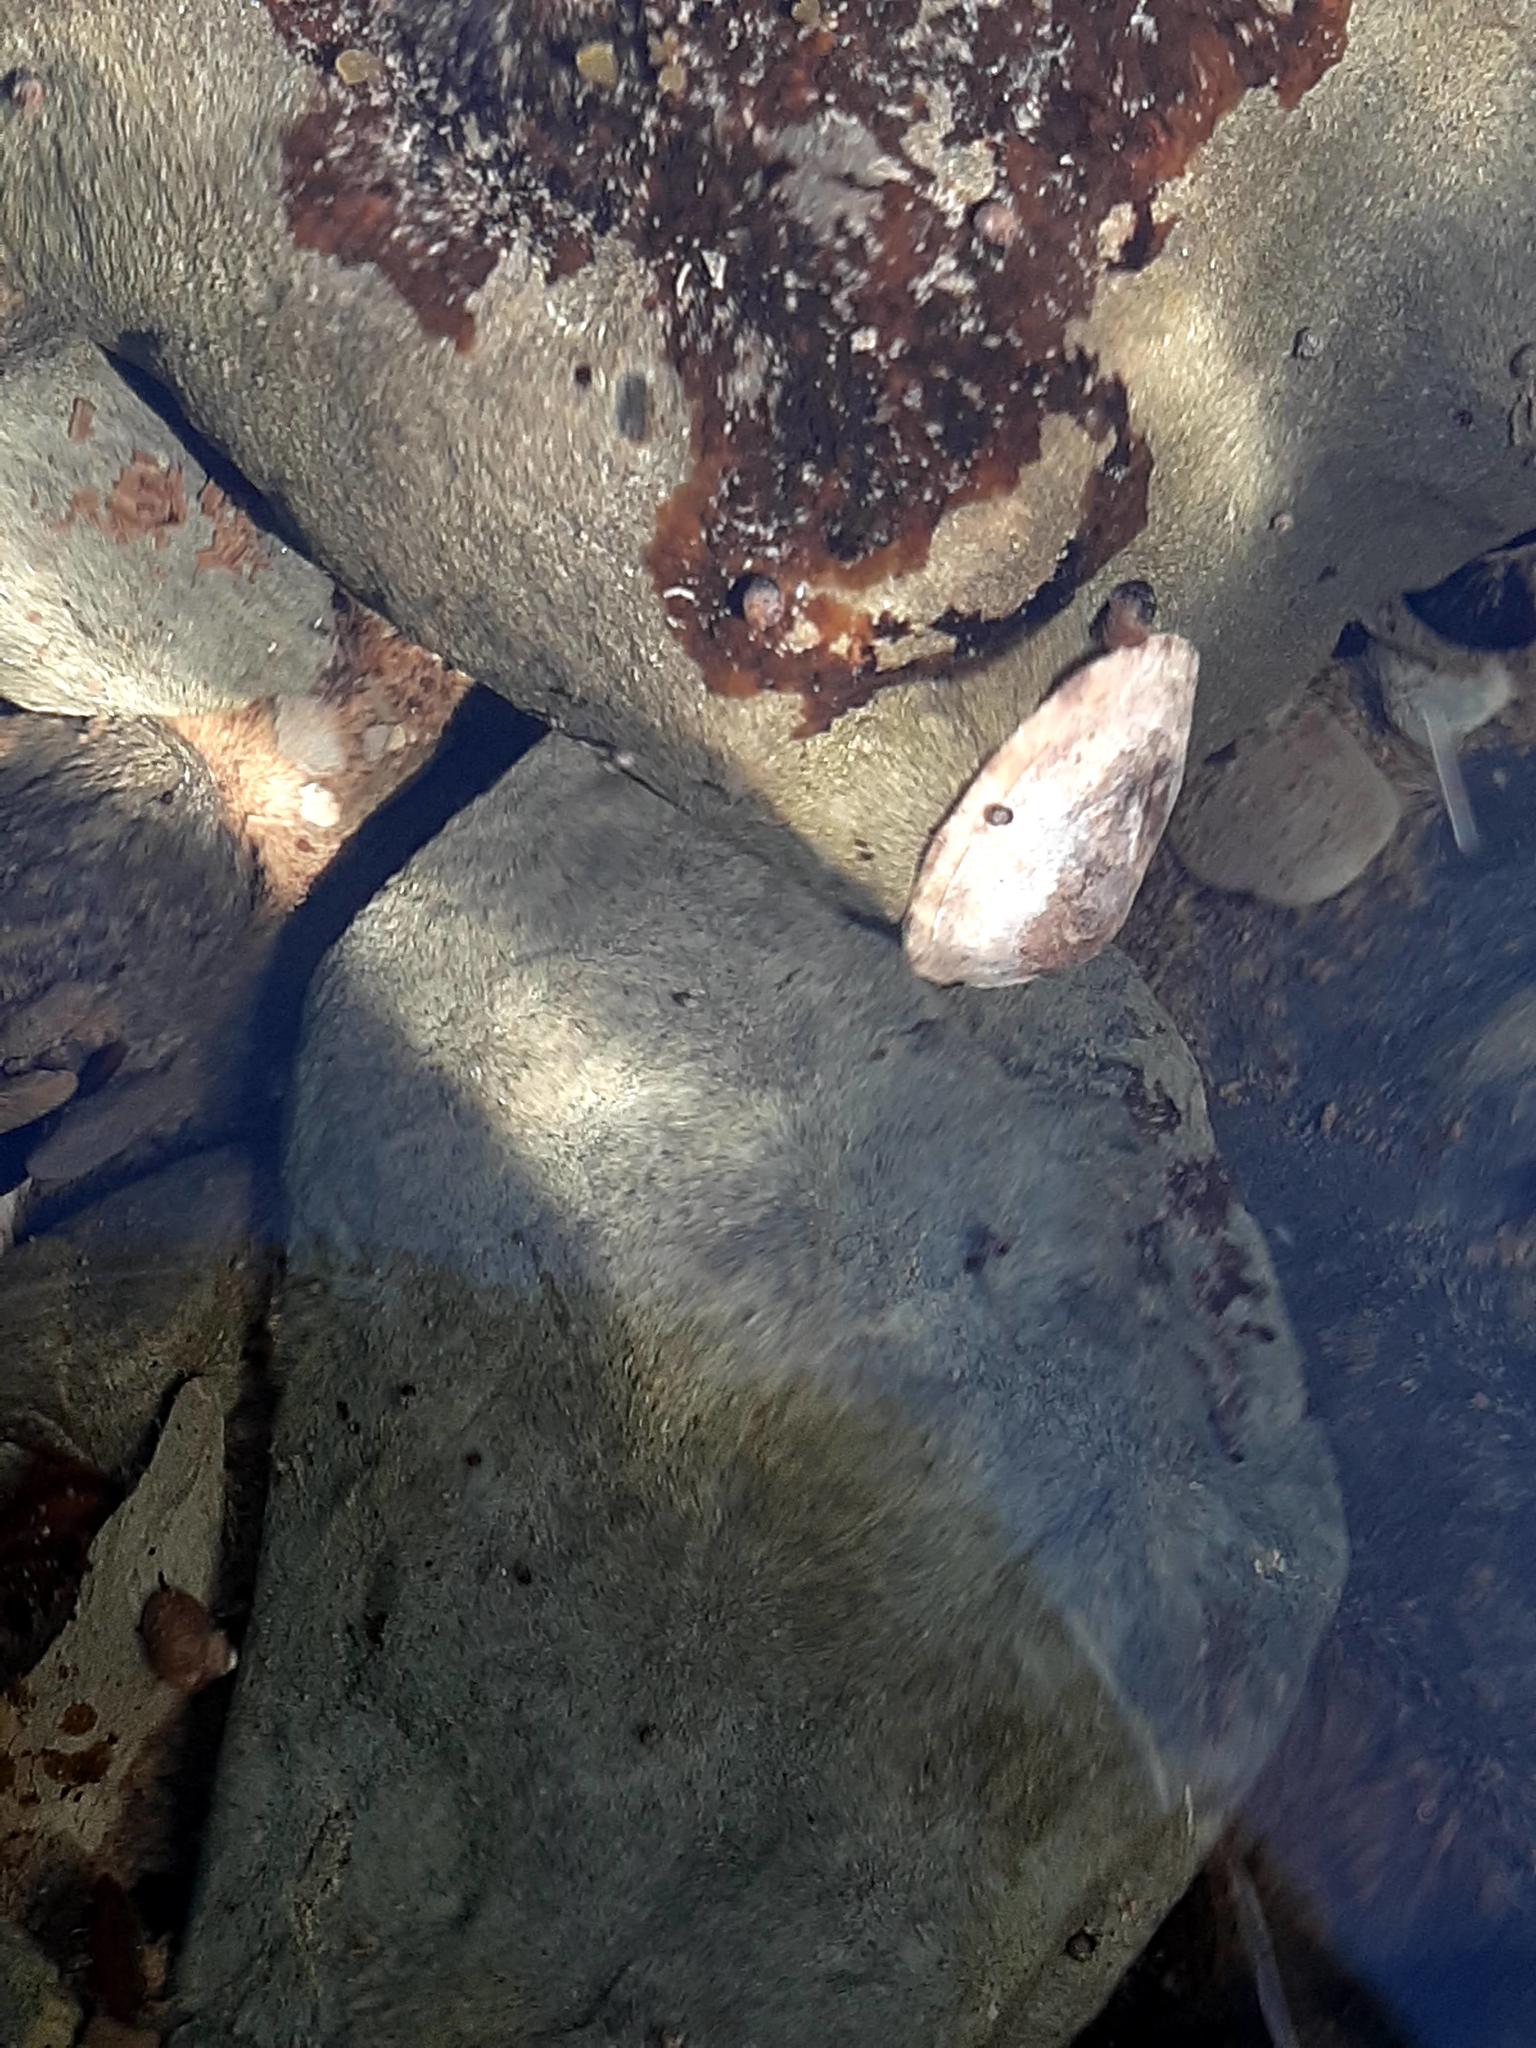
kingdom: Animalia
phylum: Mollusca
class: Gastropoda
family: Lottiidae
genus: Testudinalia
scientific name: Testudinalia testudinalis
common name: Common tortoiseshell limpet
